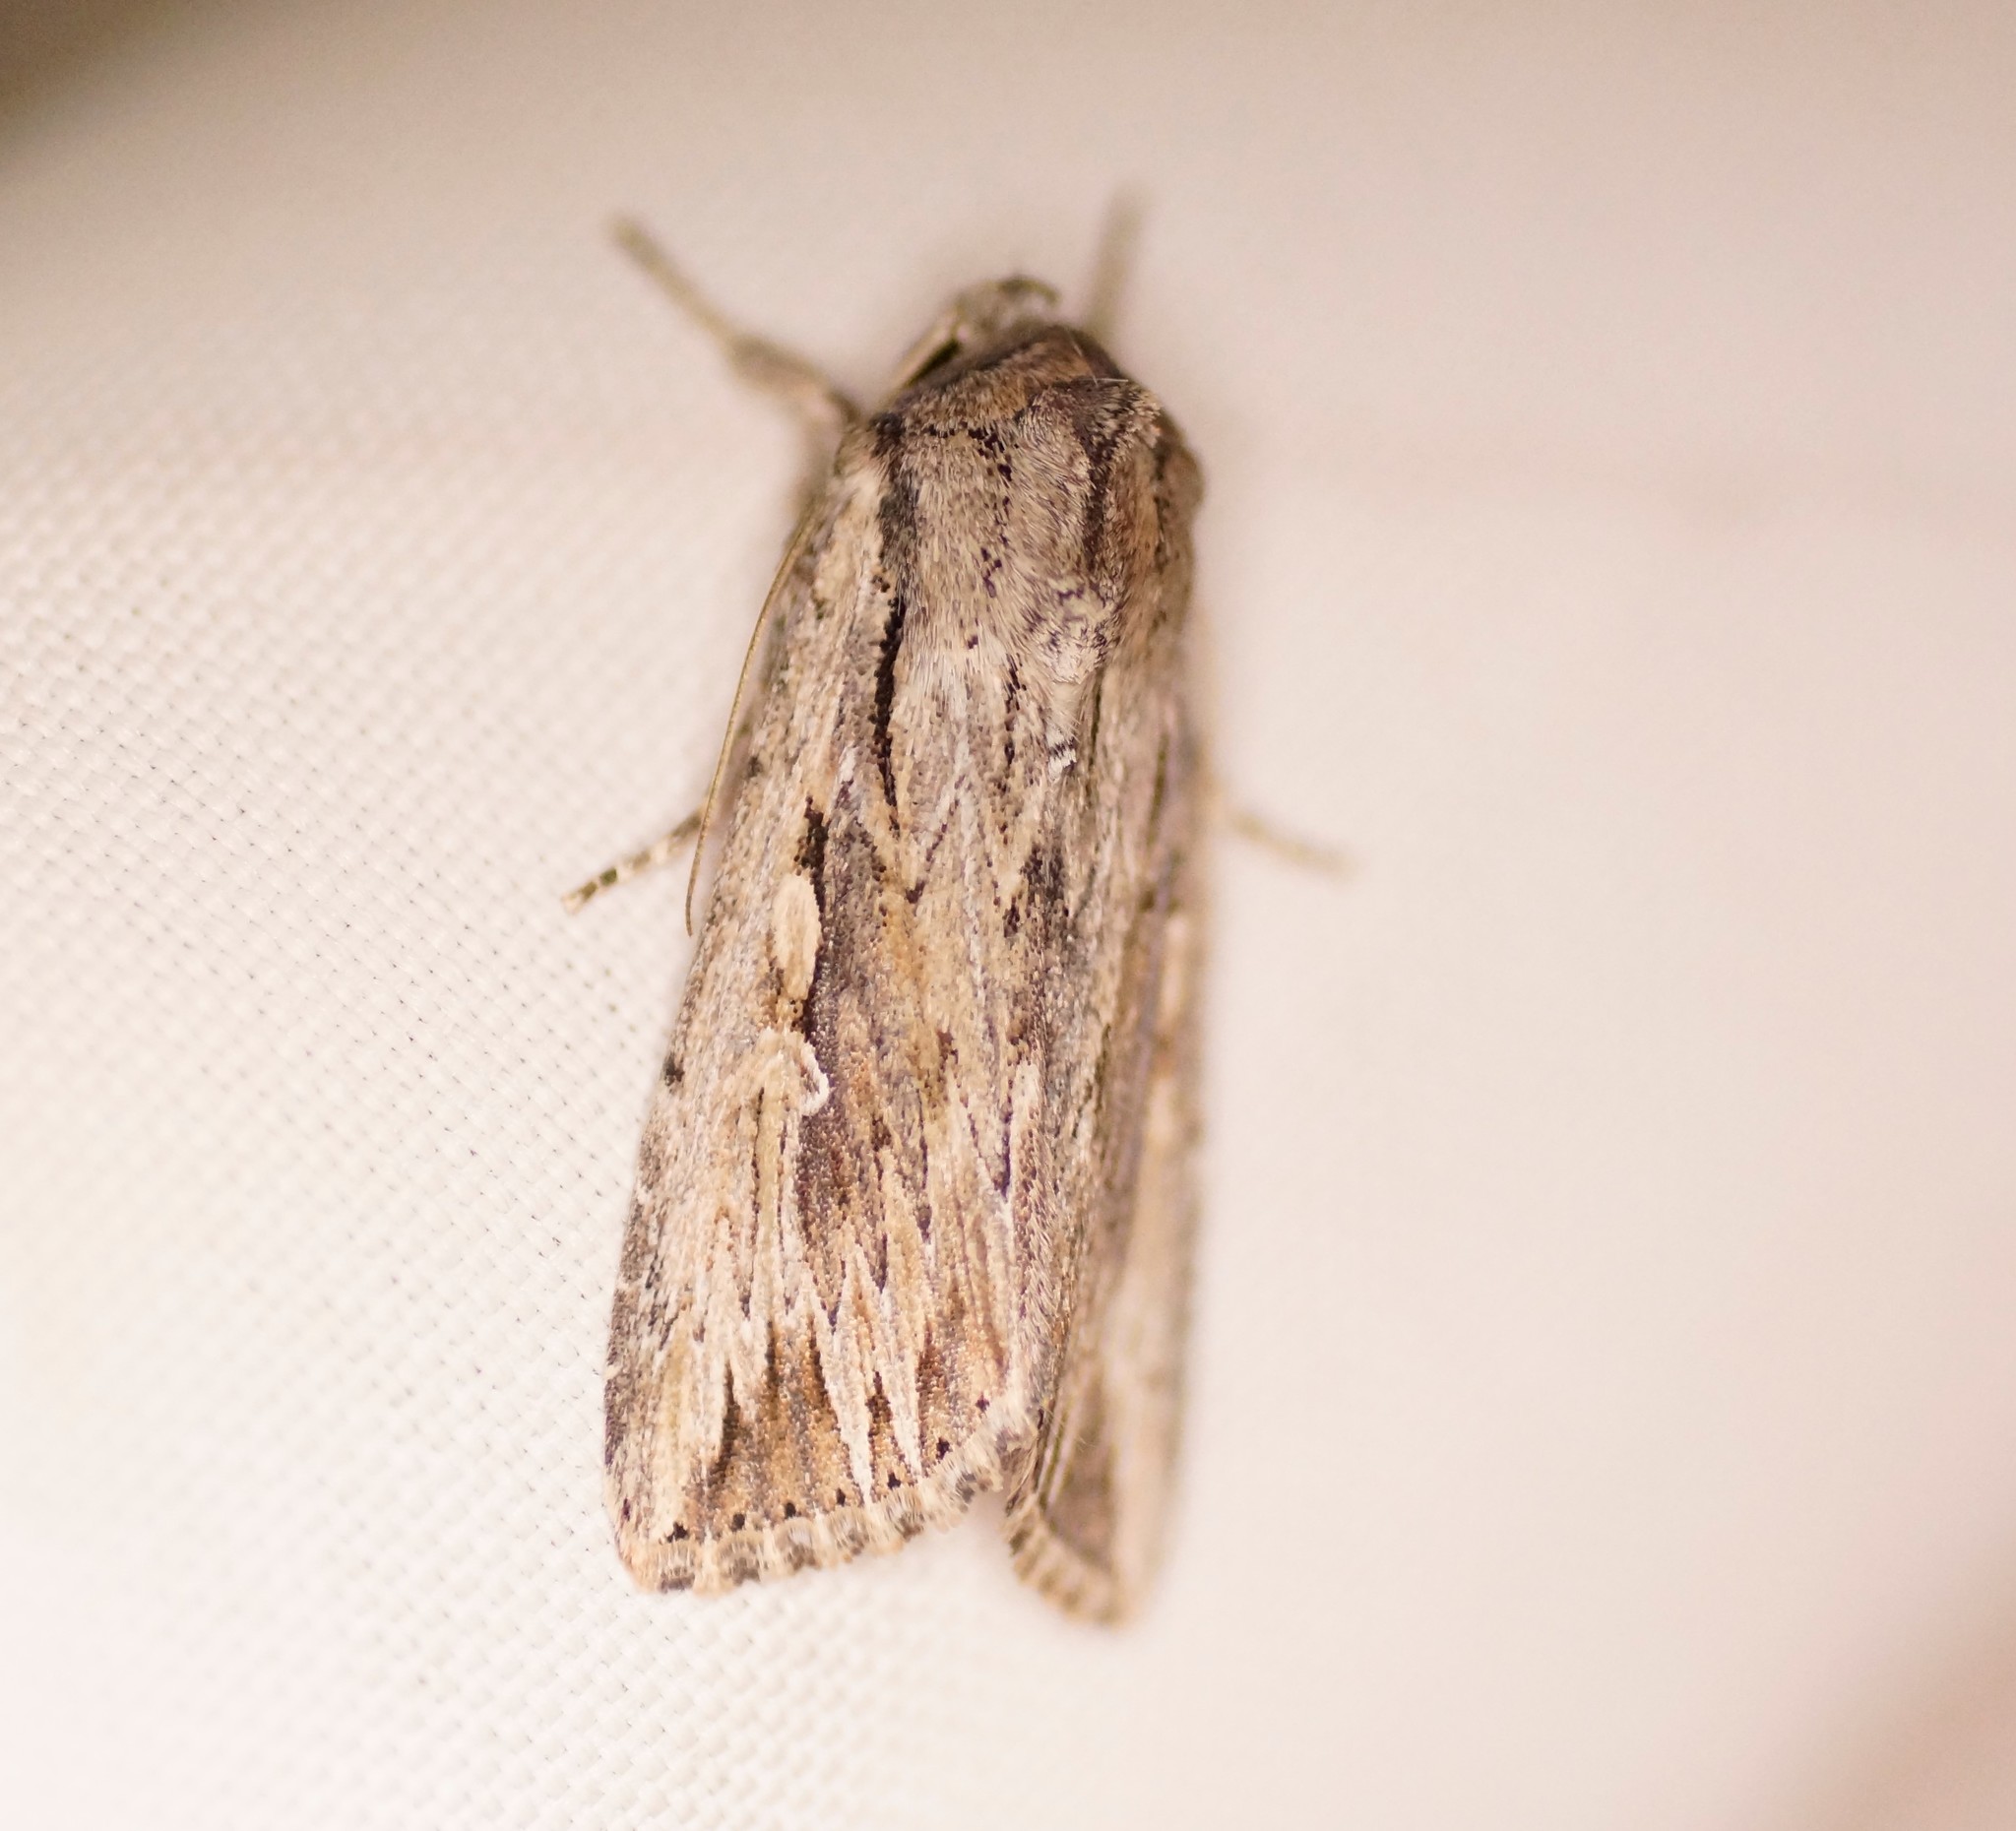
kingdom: Animalia
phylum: Arthropoda
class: Insecta
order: Lepidoptera
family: Noctuidae
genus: Persectania
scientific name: Persectania ewingii
